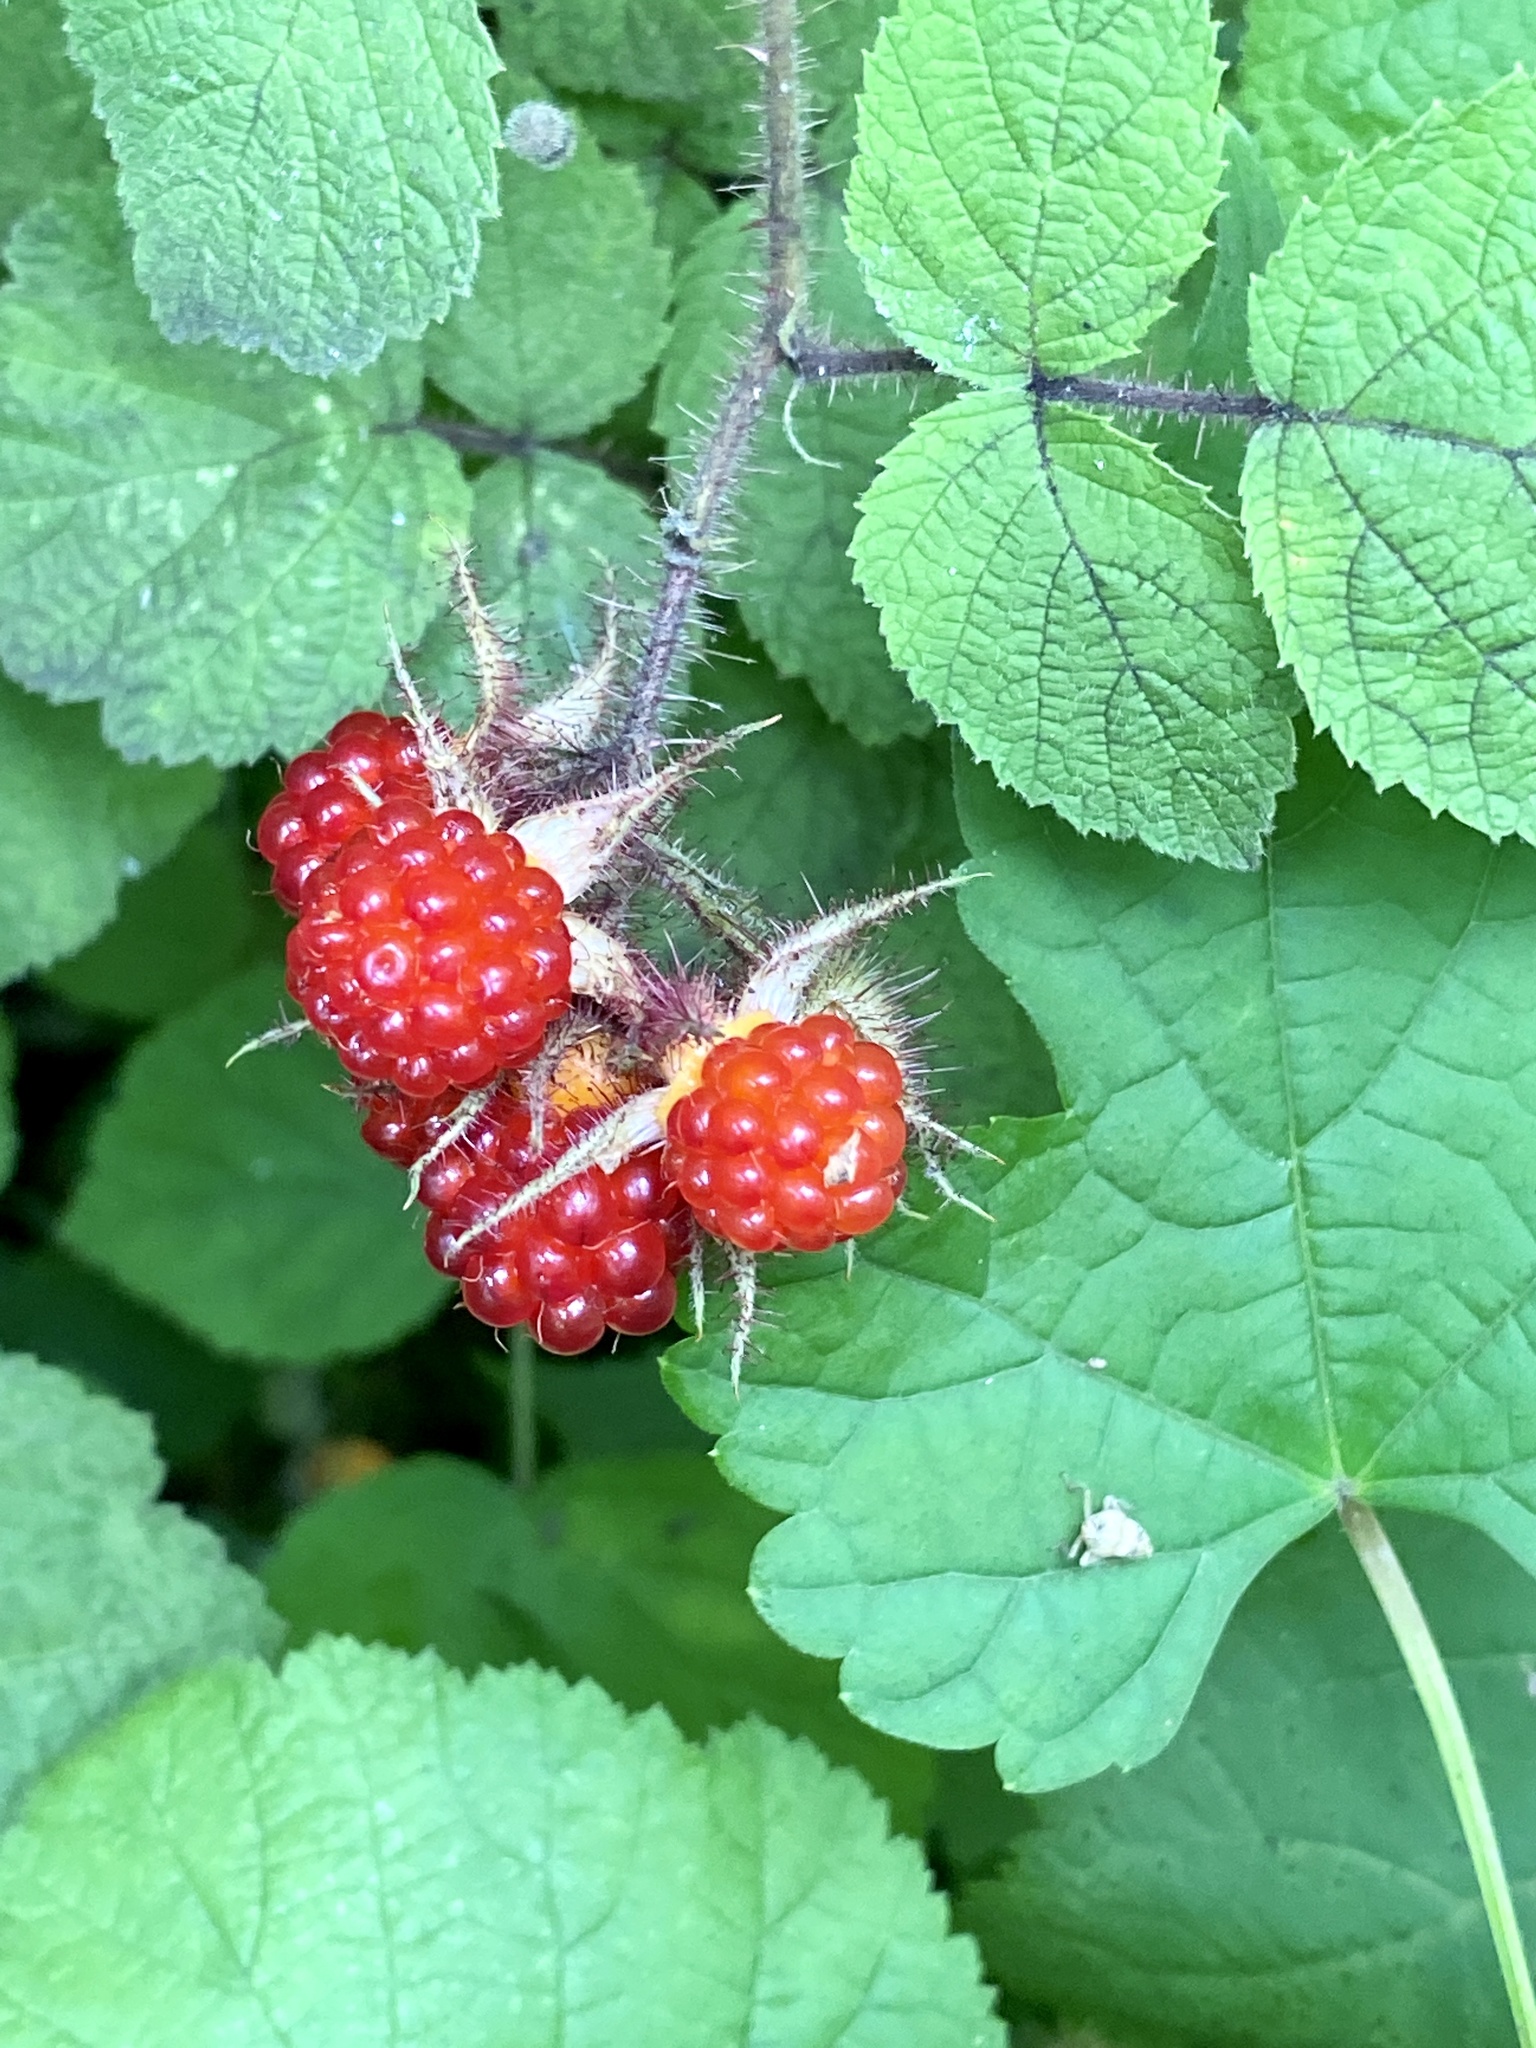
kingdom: Plantae
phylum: Tracheophyta
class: Magnoliopsida
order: Rosales
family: Rosaceae
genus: Rubus
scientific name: Rubus phoenicolasius
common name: Japanese wineberry
